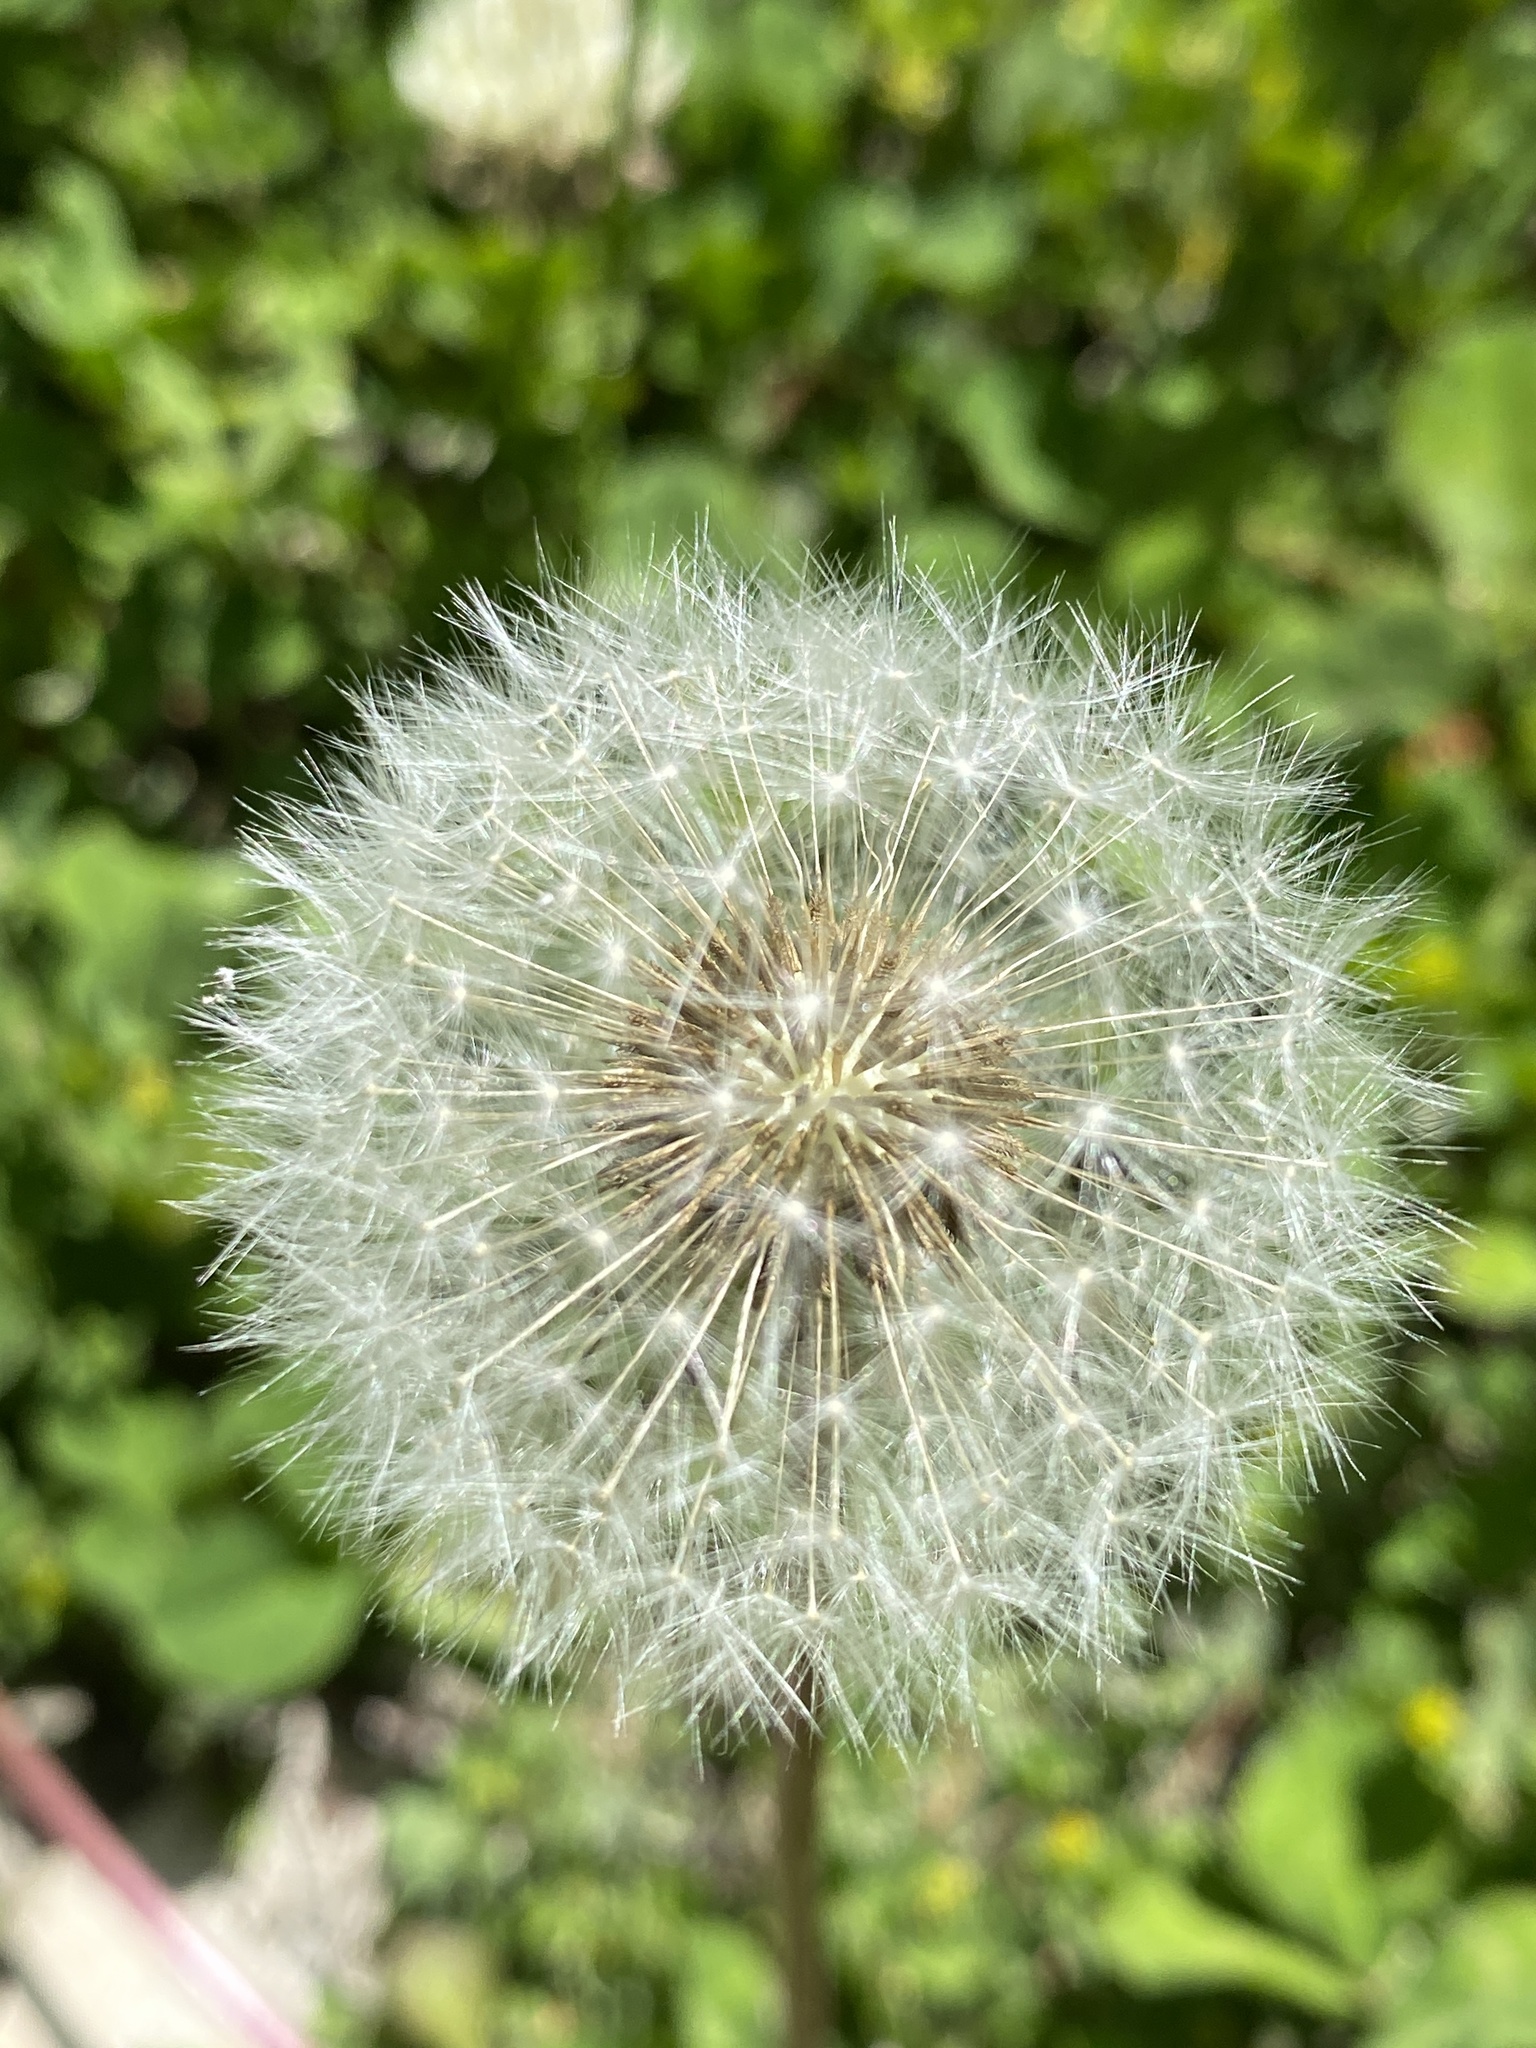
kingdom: Plantae
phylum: Tracheophyta
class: Magnoliopsida
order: Asterales
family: Asteraceae
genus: Taraxacum
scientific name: Taraxacum officinale
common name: Common dandelion
